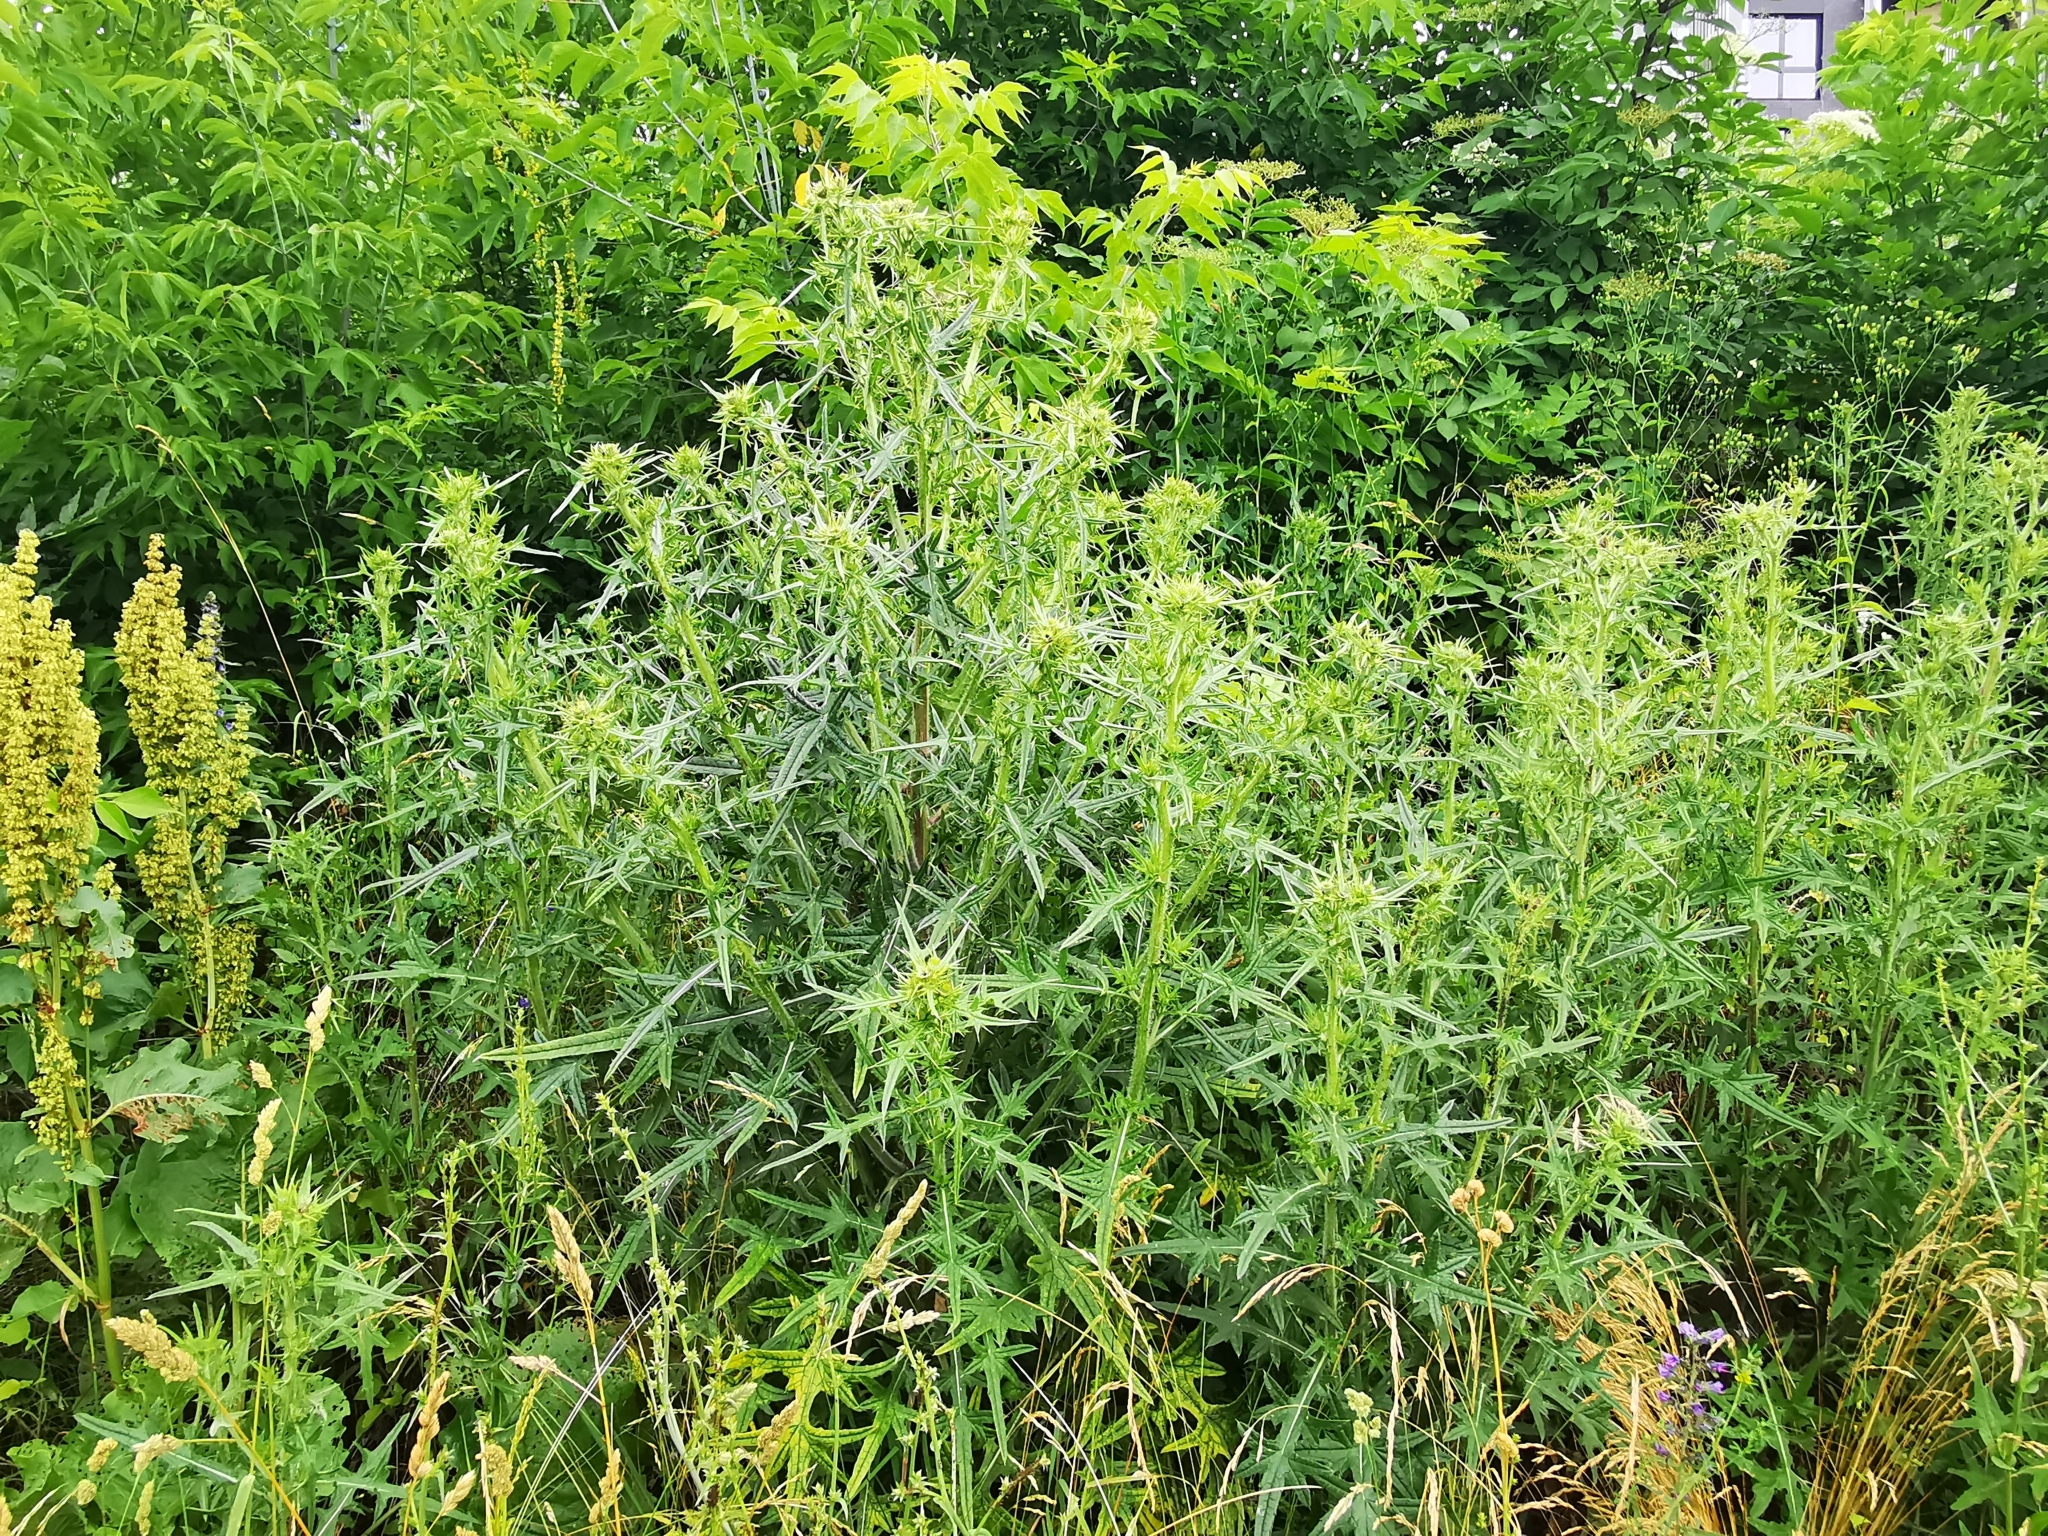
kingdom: Plantae
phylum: Tracheophyta
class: Magnoliopsida
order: Asterales
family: Asteraceae
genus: Cirsium
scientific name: Cirsium vulgare
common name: Bull thistle
